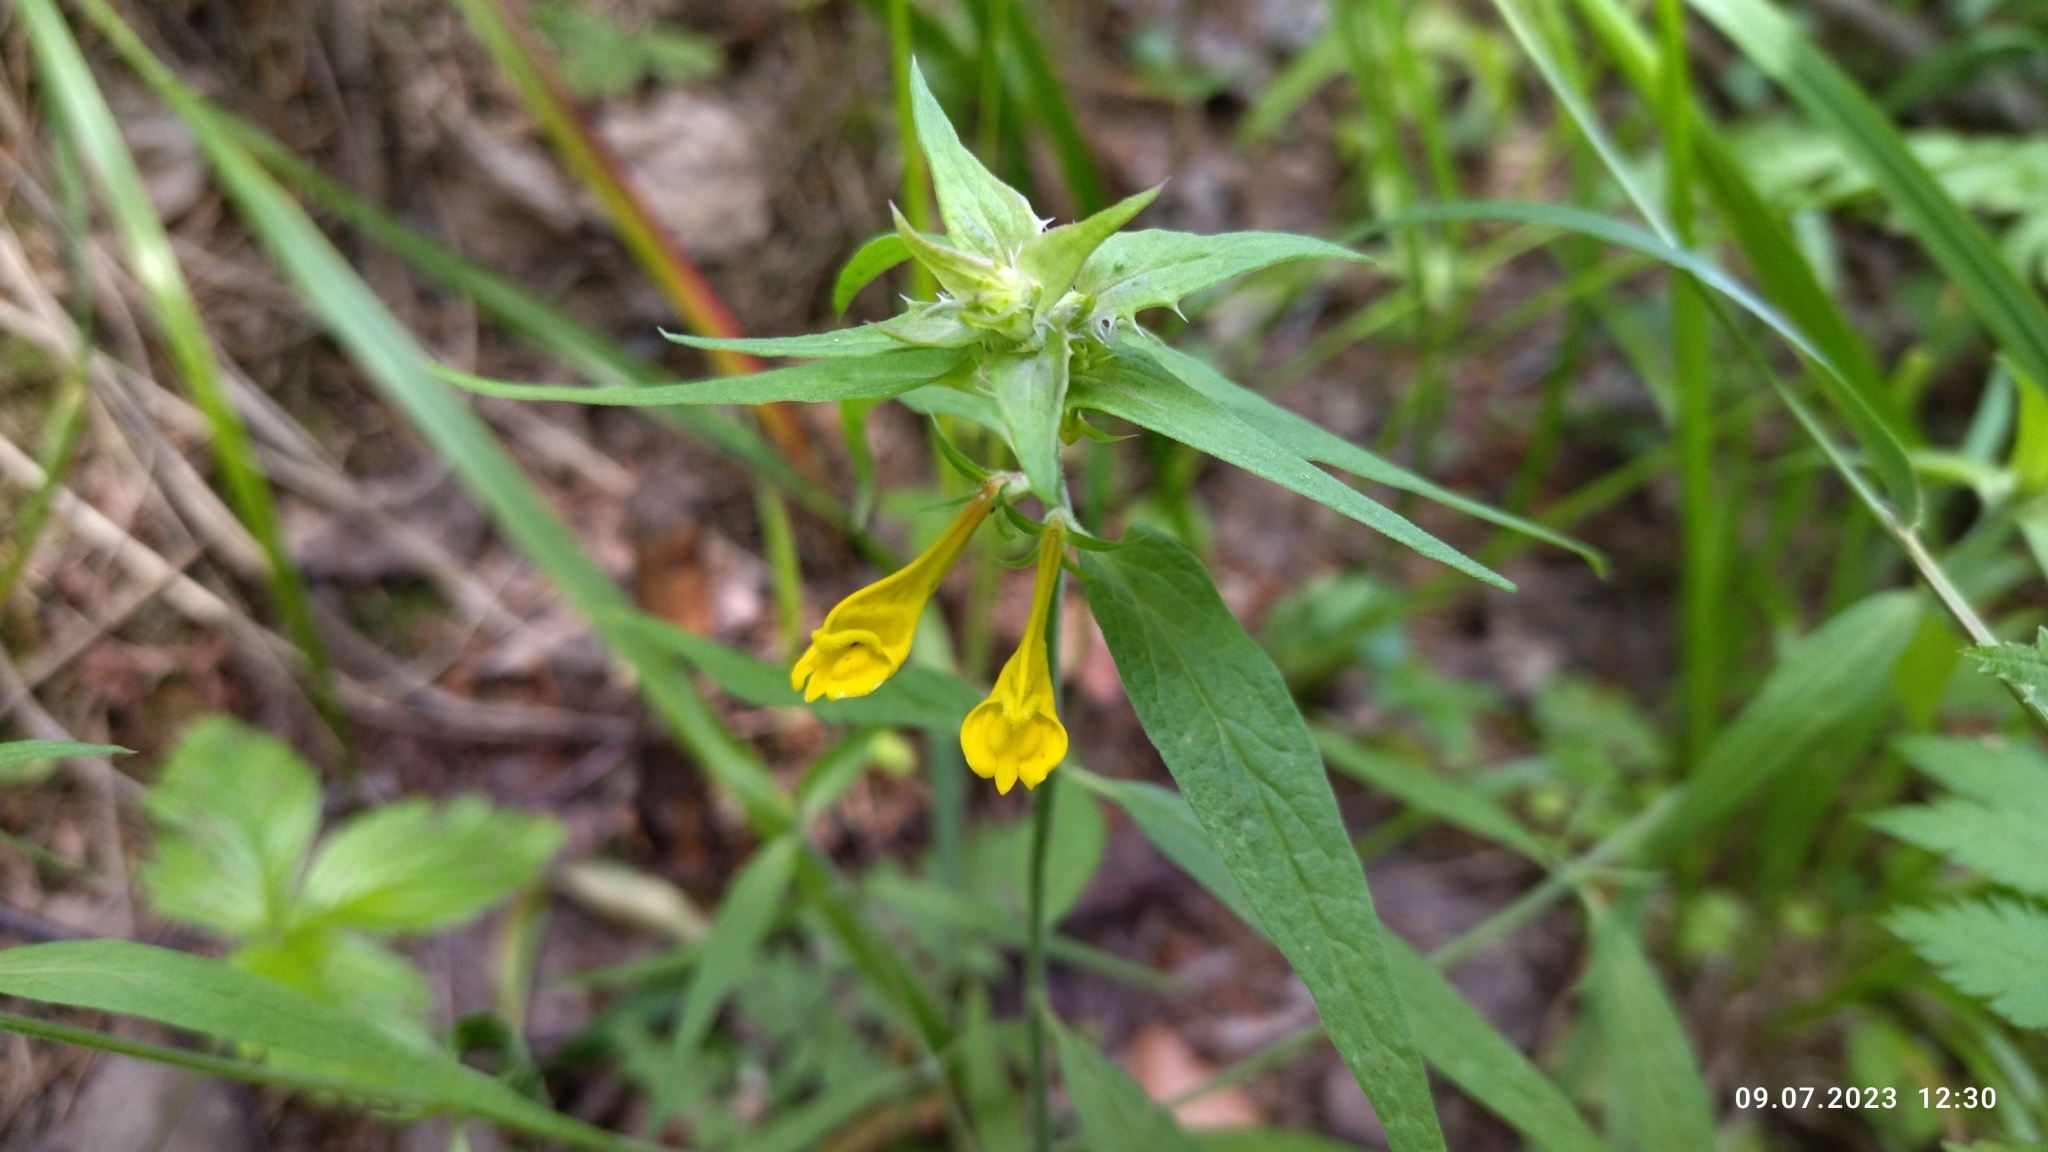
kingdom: Plantae
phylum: Tracheophyta
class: Magnoliopsida
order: Lamiales
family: Orobanchaceae
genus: Melampyrum
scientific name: Melampyrum nemorosum
